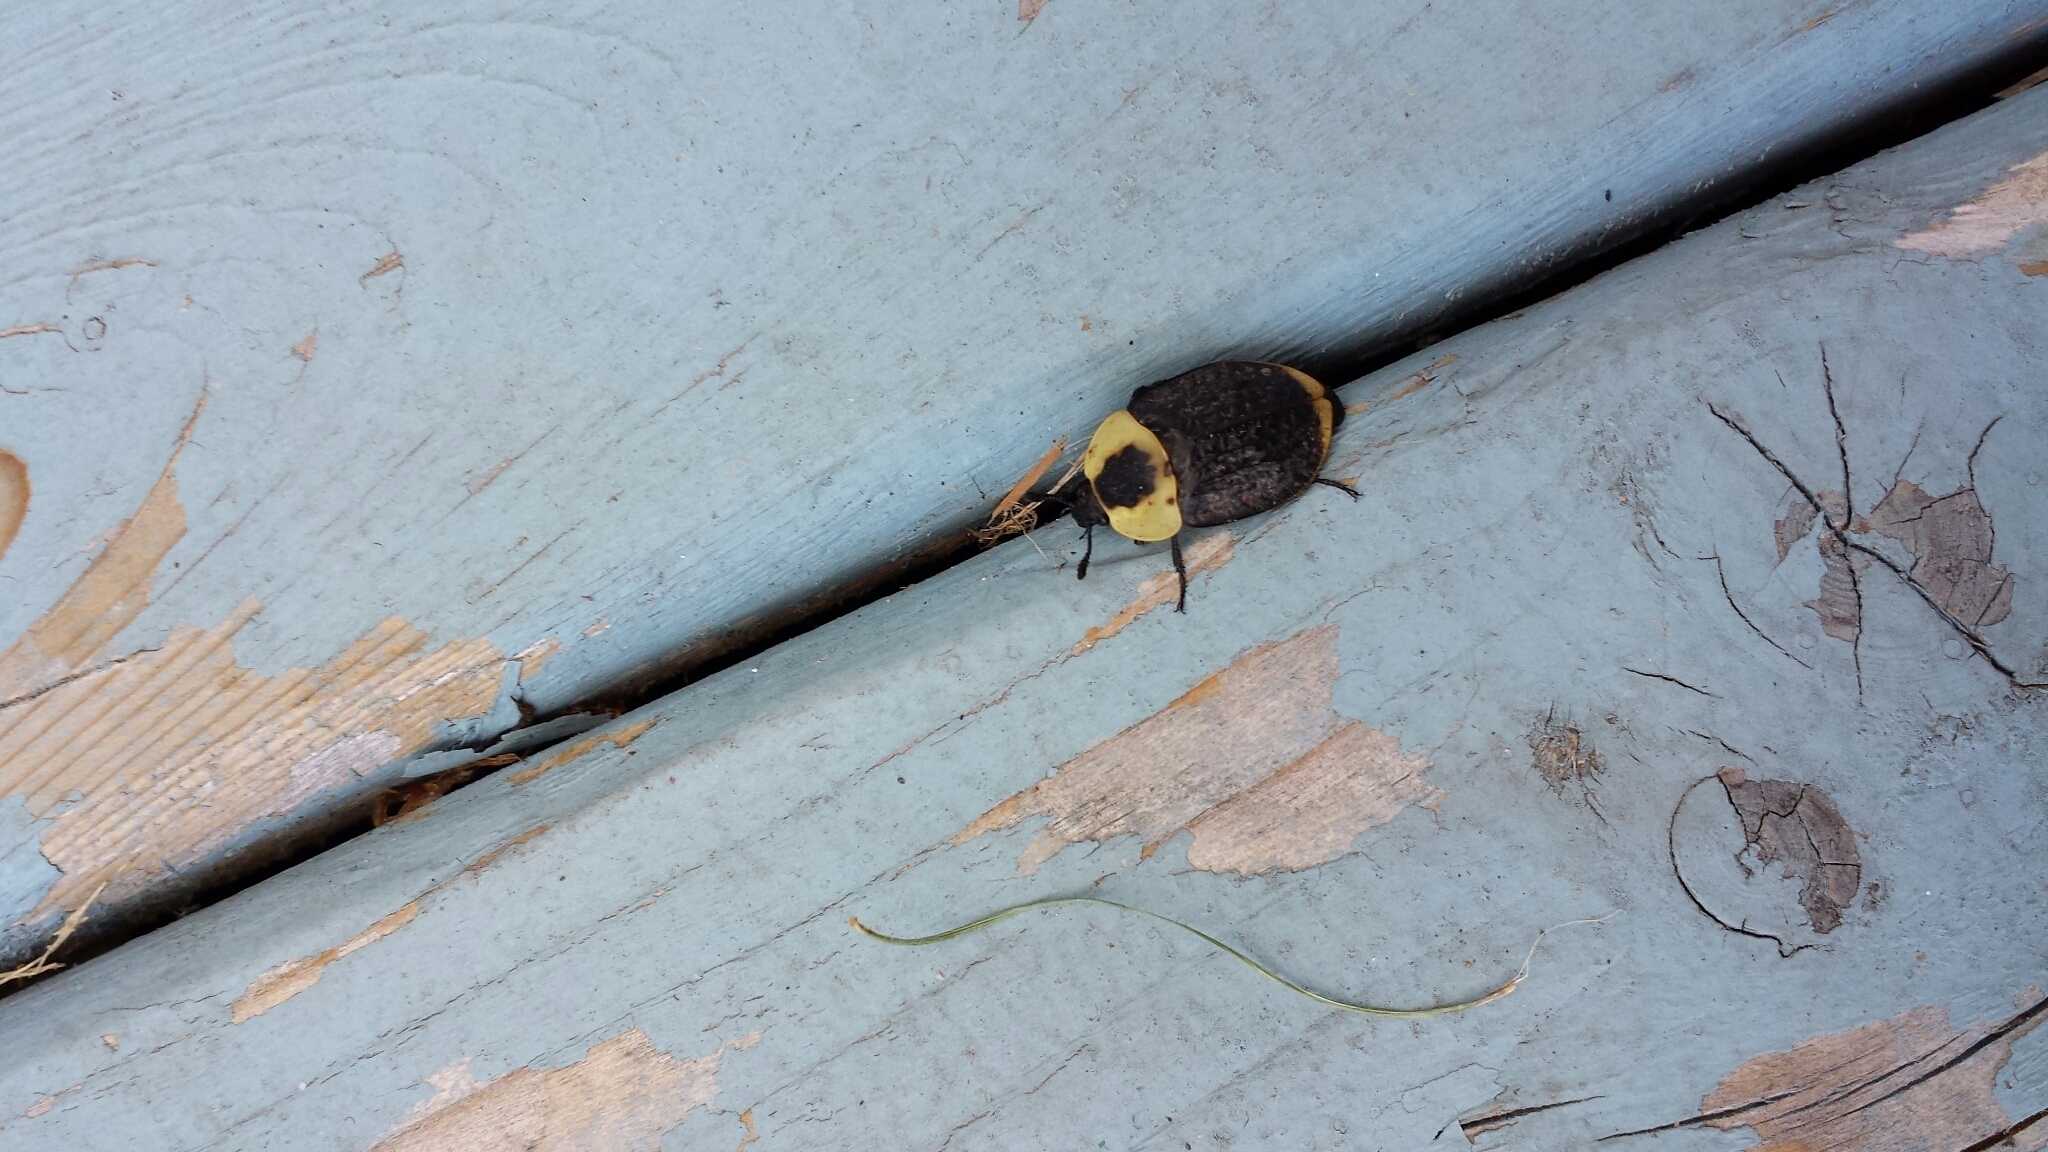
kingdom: Animalia
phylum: Arthropoda
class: Insecta
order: Coleoptera
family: Staphylinidae
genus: Necrophila
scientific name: Necrophila americana
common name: American carrion beetle
